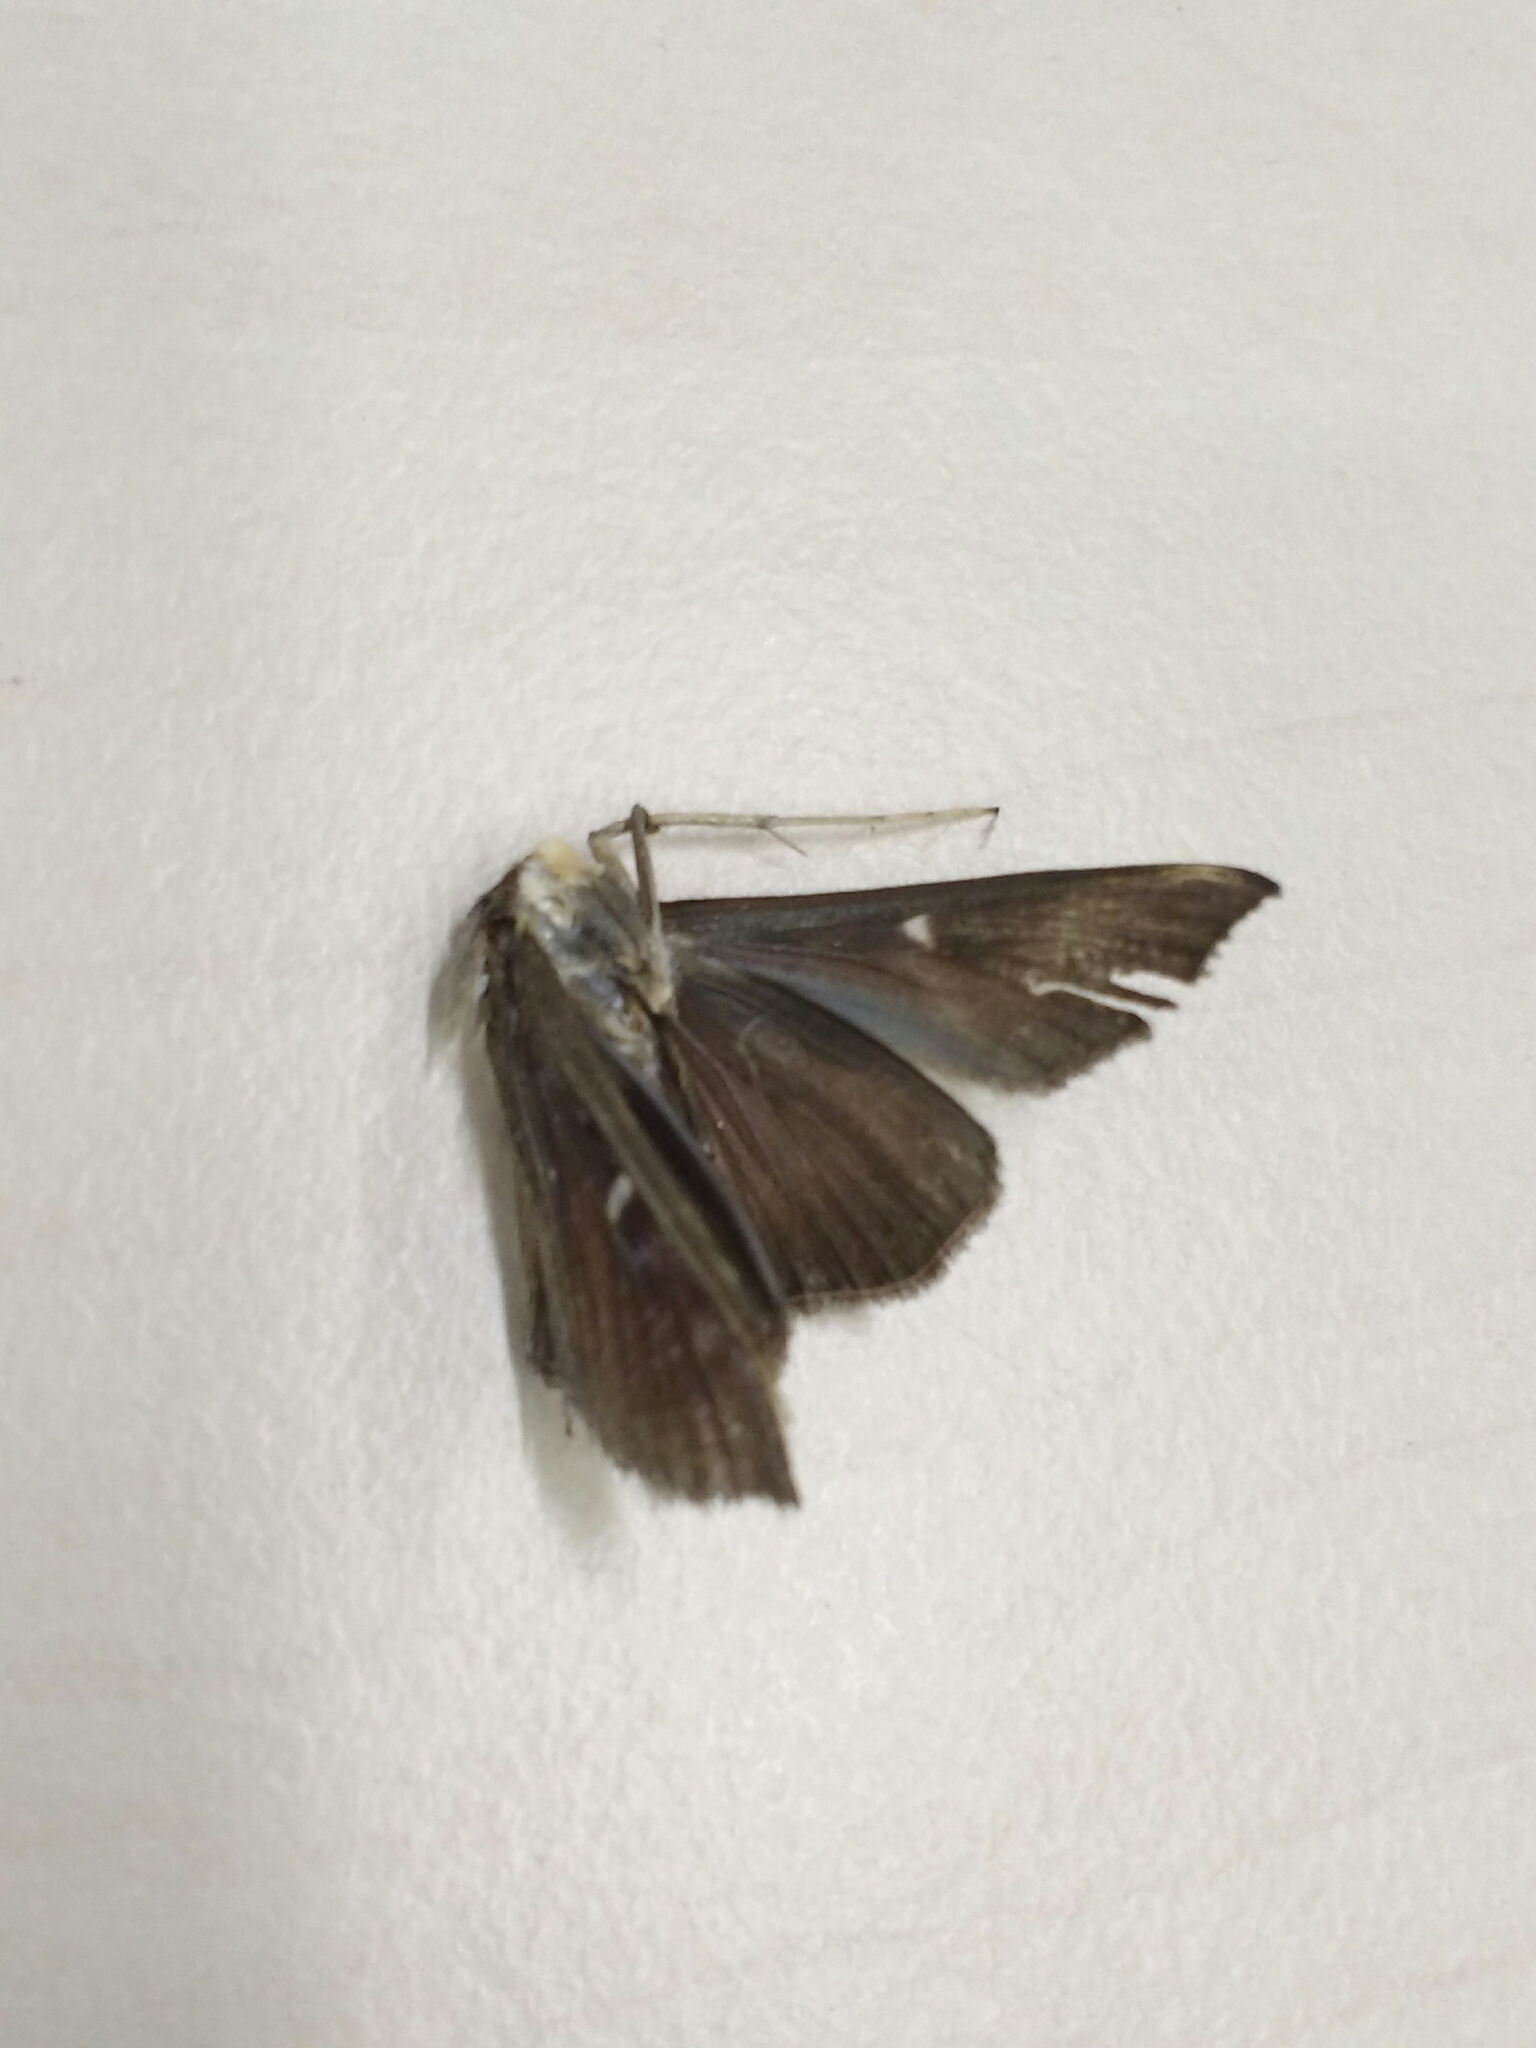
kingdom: Animalia
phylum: Arthropoda
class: Insecta
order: Lepidoptera
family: Crambidae
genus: Cydalima
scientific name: Cydalima perspectalis
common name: Box tree moth
